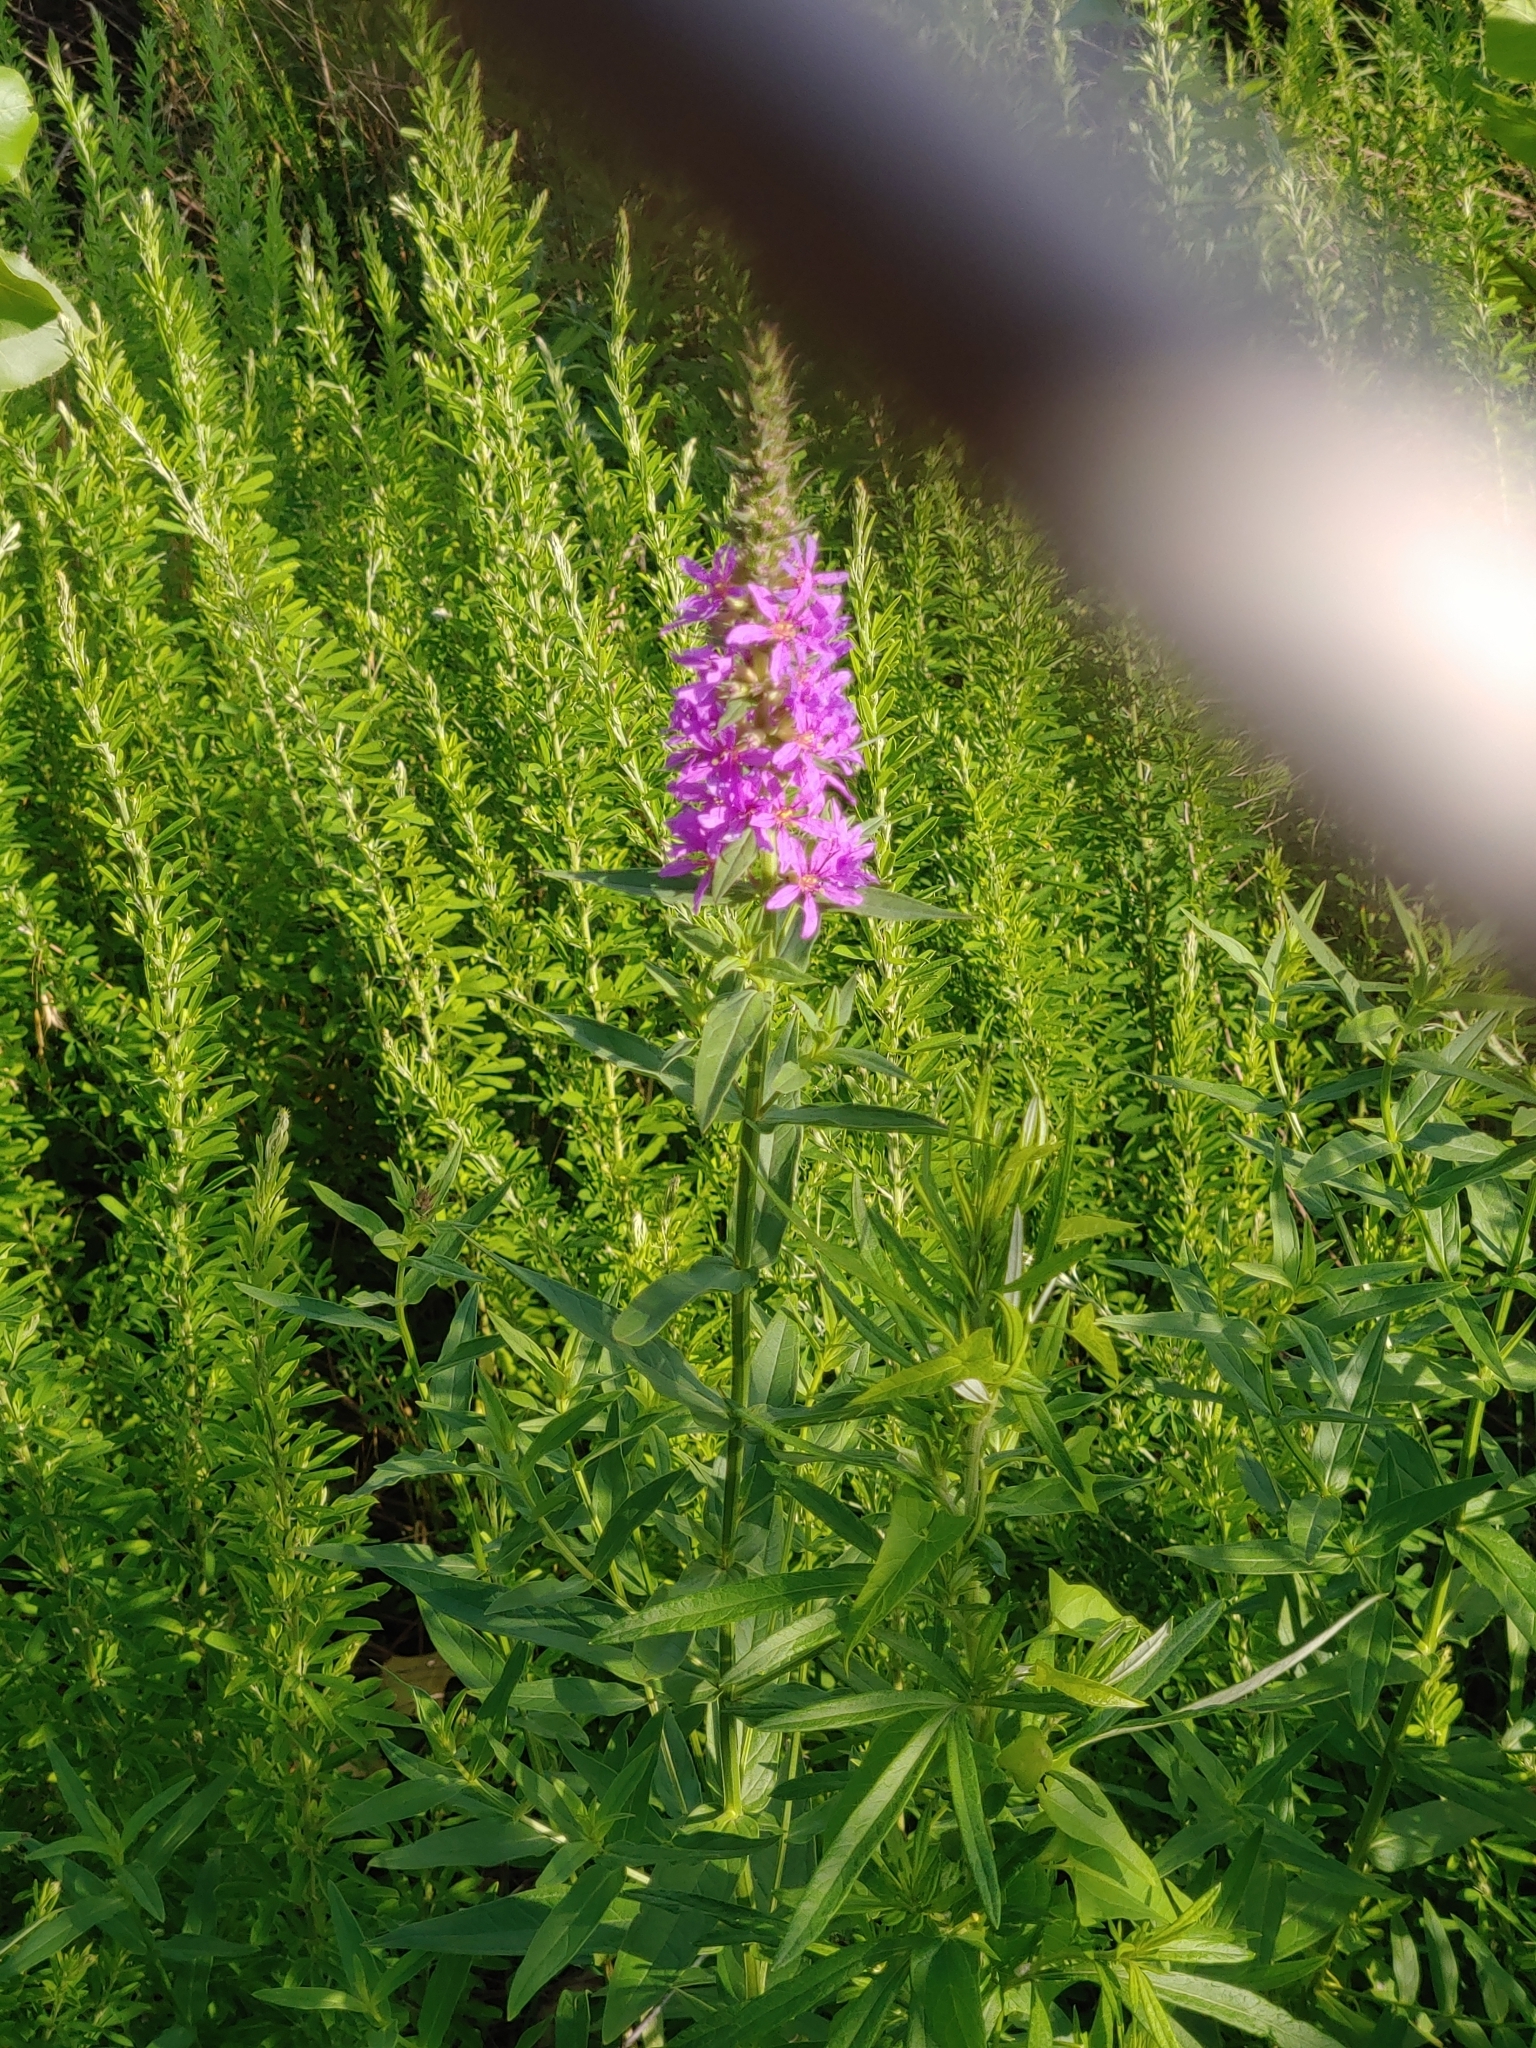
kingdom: Plantae
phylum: Tracheophyta
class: Magnoliopsida
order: Myrtales
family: Lythraceae
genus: Lythrum
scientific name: Lythrum salicaria
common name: Purple loosestrife
